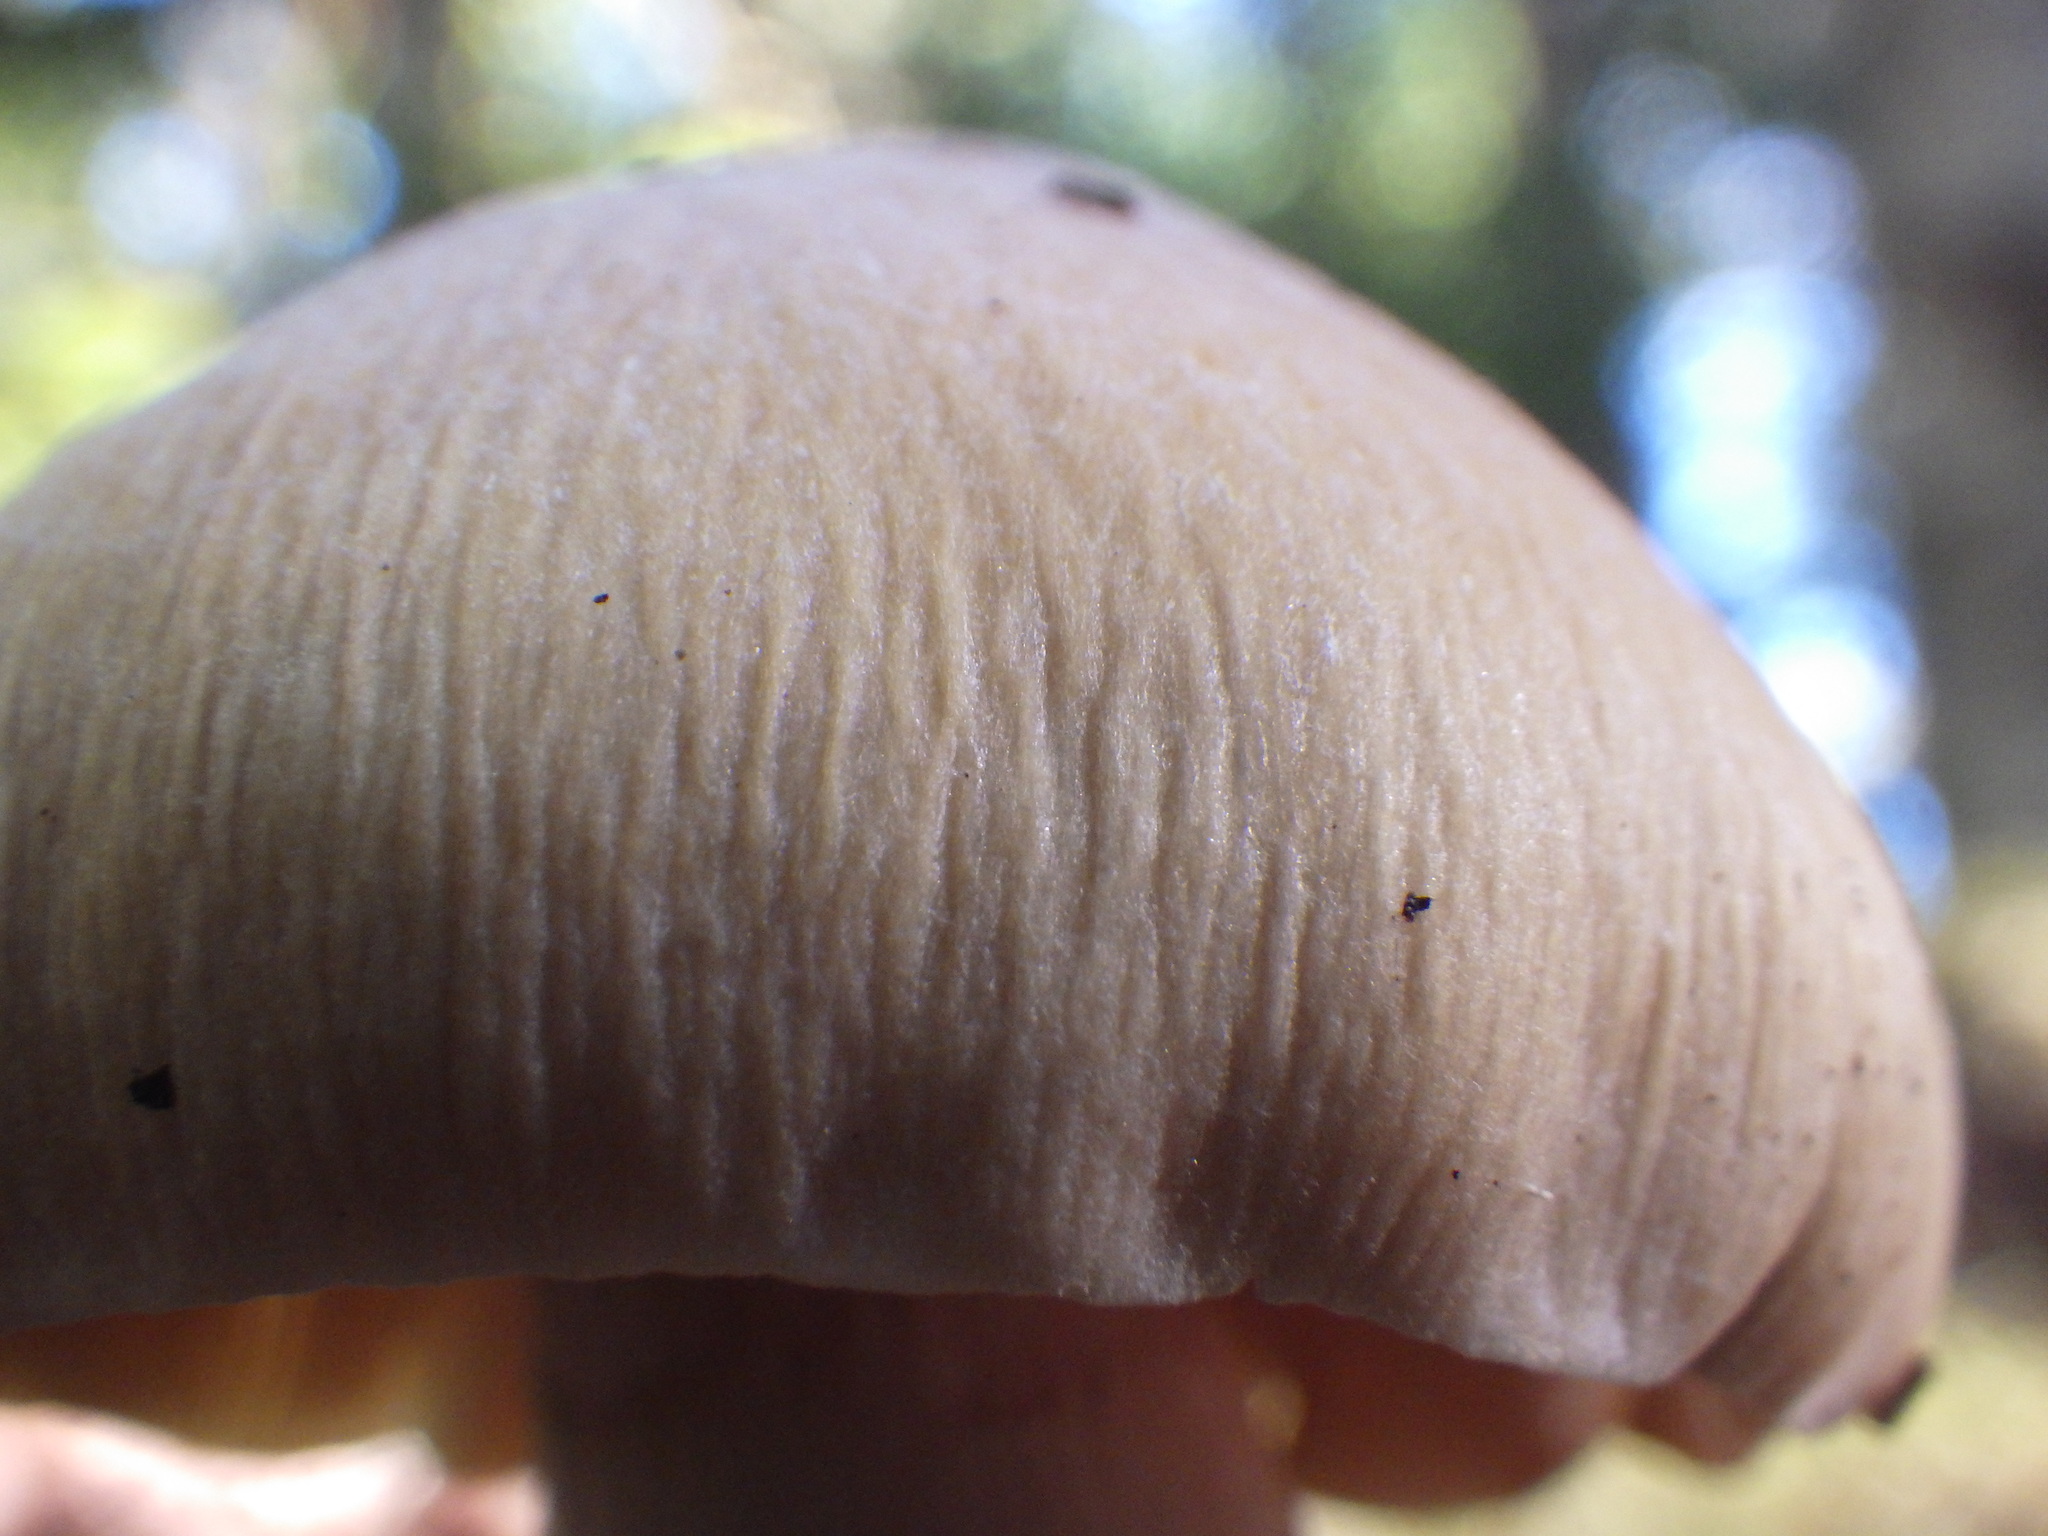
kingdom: Fungi
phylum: Basidiomycota
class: Agaricomycetes
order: Agaricales
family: Cortinariaceae
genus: Cortinarius
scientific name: Cortinarius caperatus
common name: The gypsy
